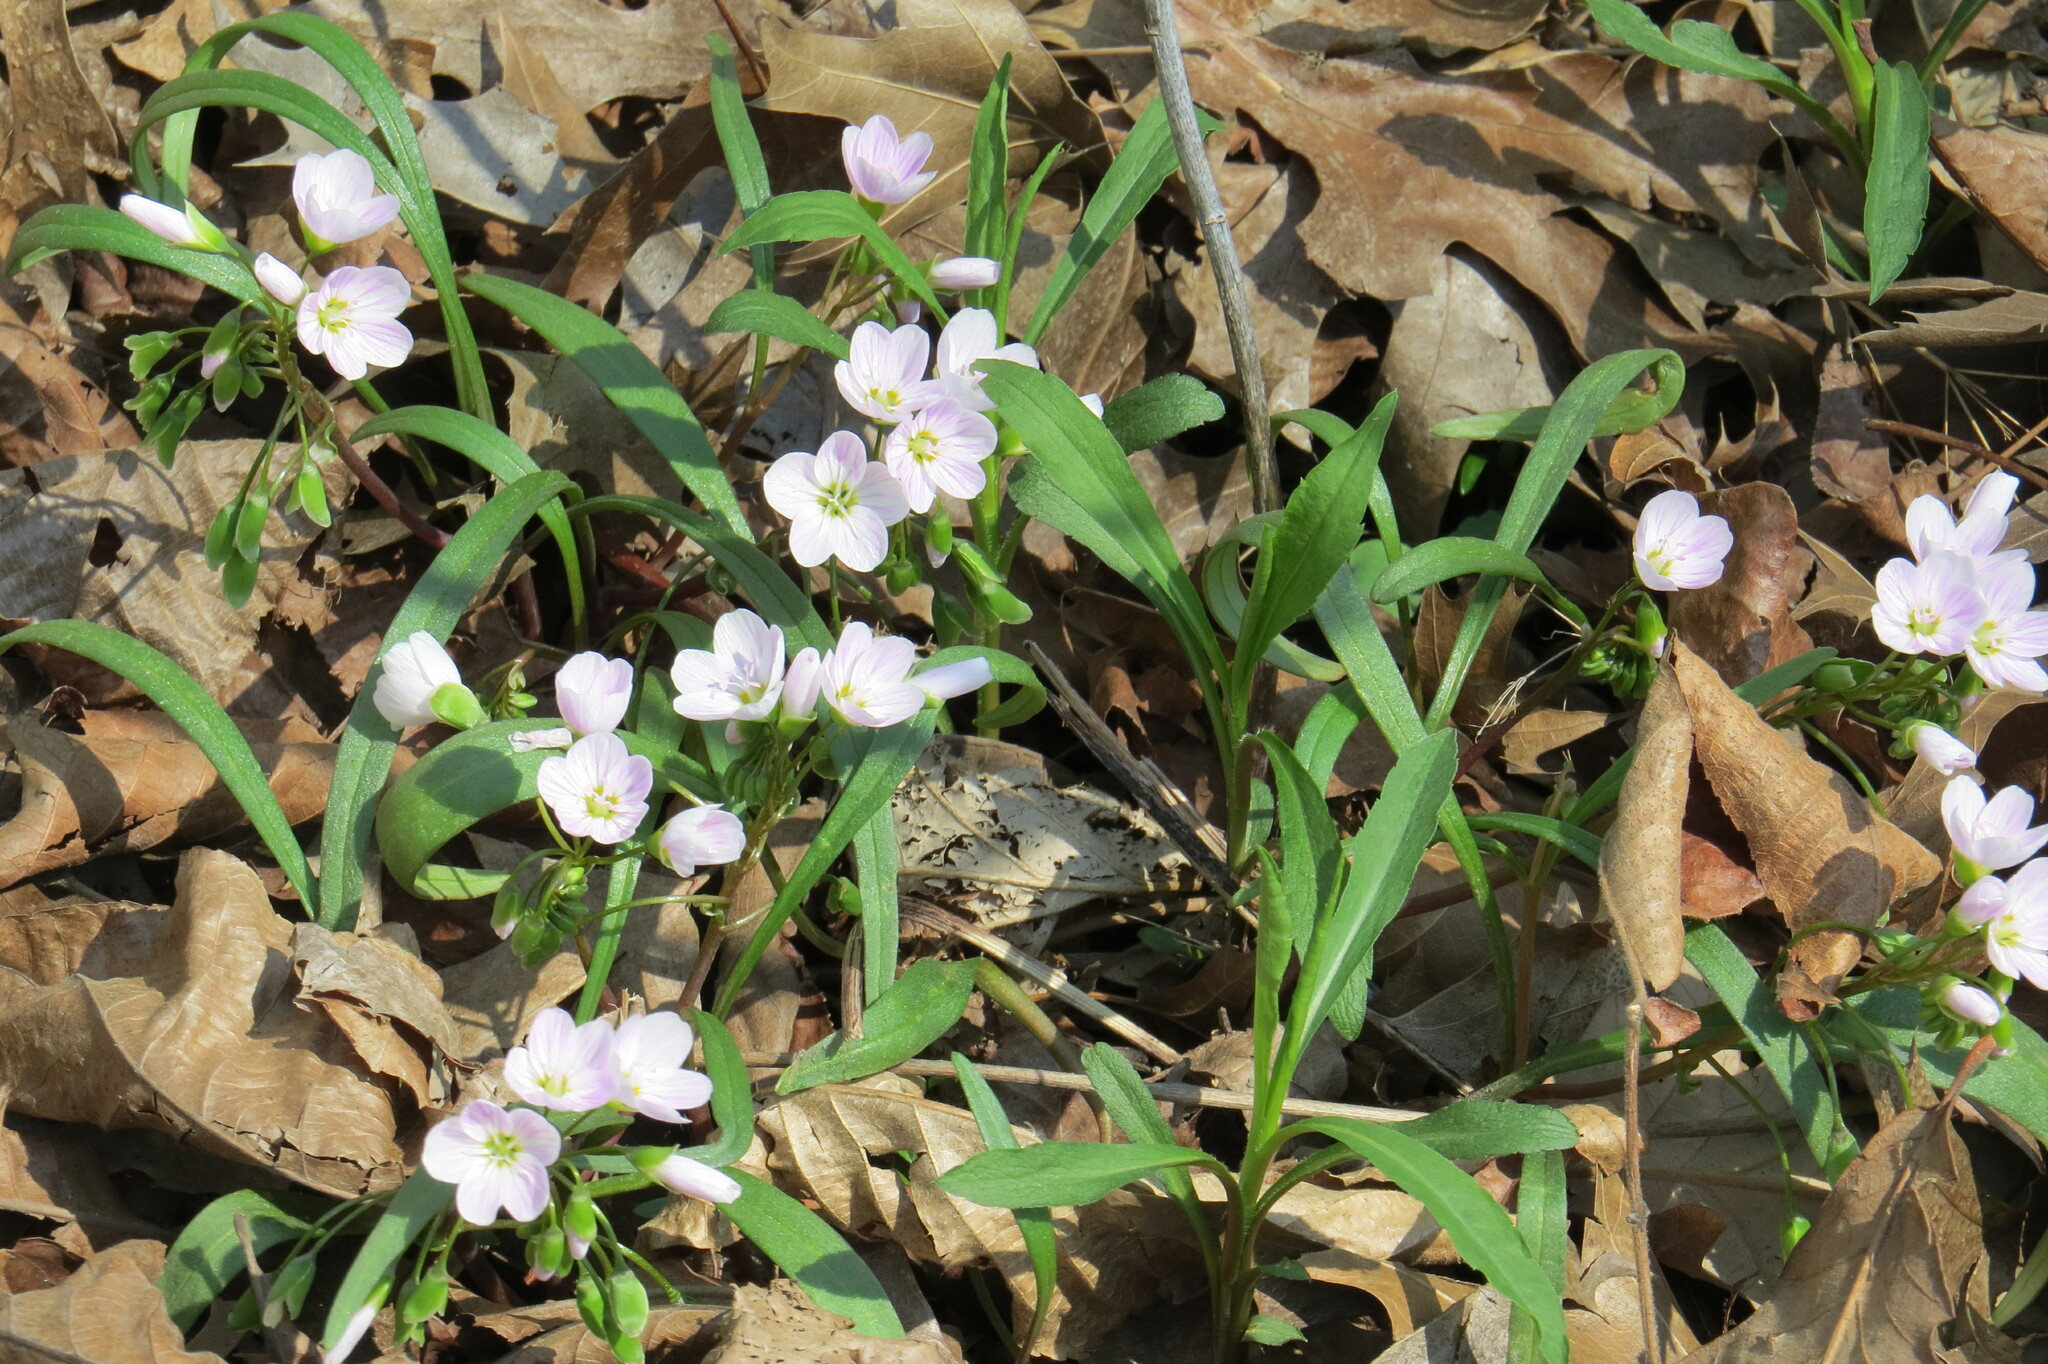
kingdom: Plantae
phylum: Tracheophyta
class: Magnoliopsida
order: Caryophyllales
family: Montiaceae
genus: Claytonia
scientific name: Claytonia virginica
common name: Virginia springbeauty
